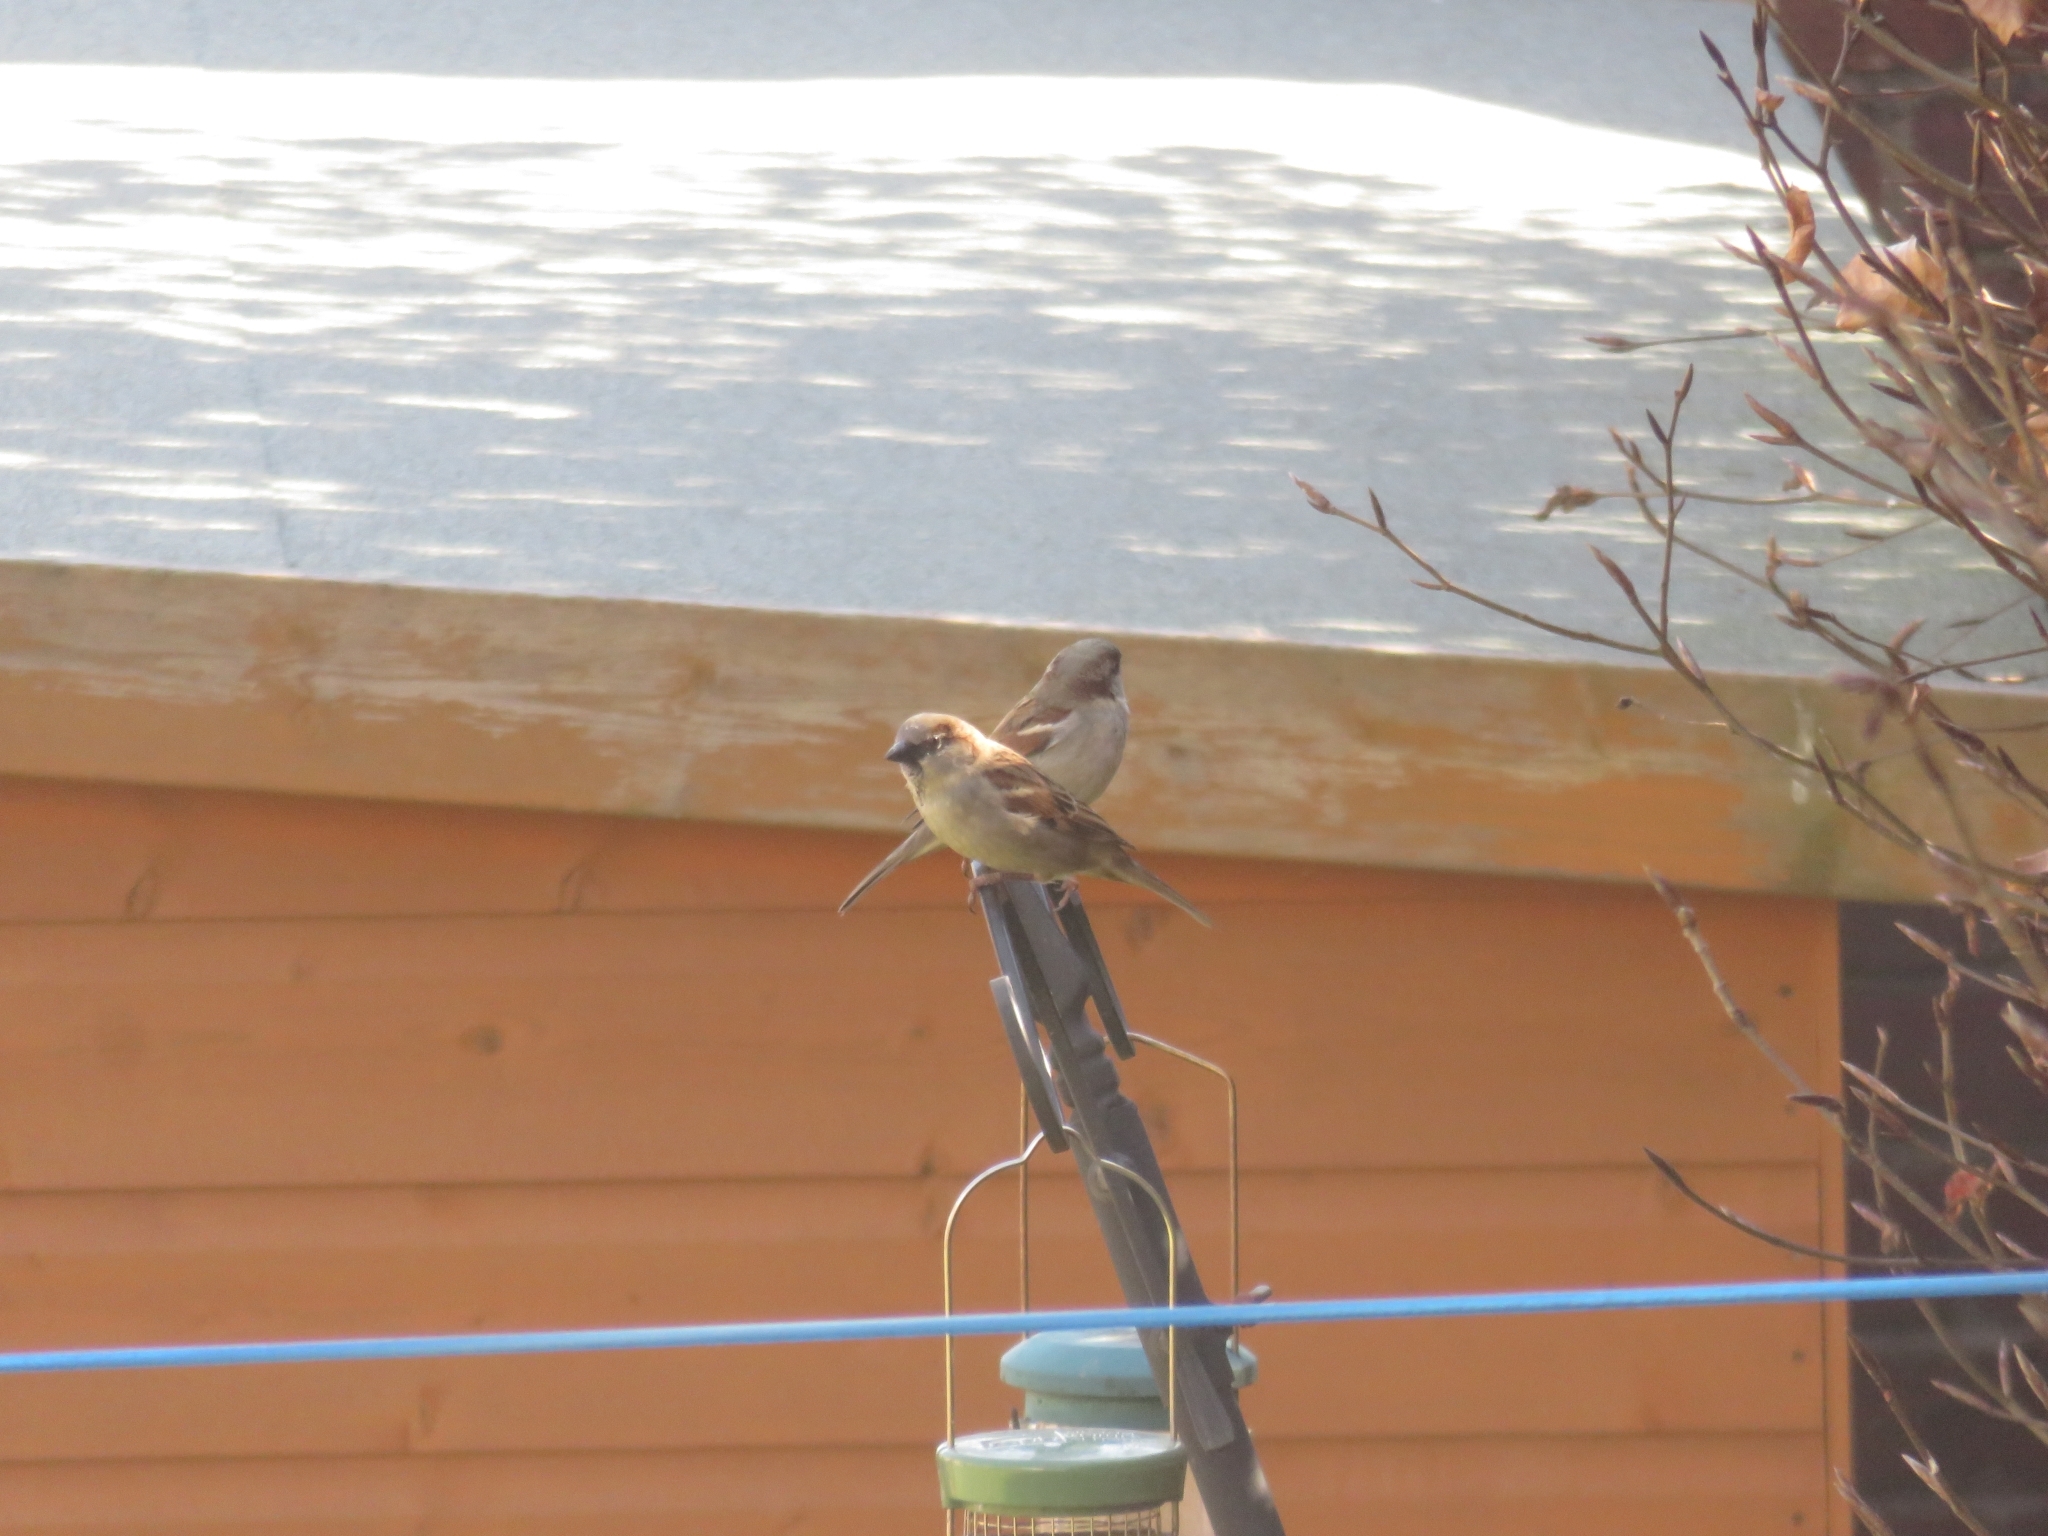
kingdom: Animalia
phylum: Chordata
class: Aves
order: Passeriformes
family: Passeridae
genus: Passer
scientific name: Passer domesticus
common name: House sparrow
